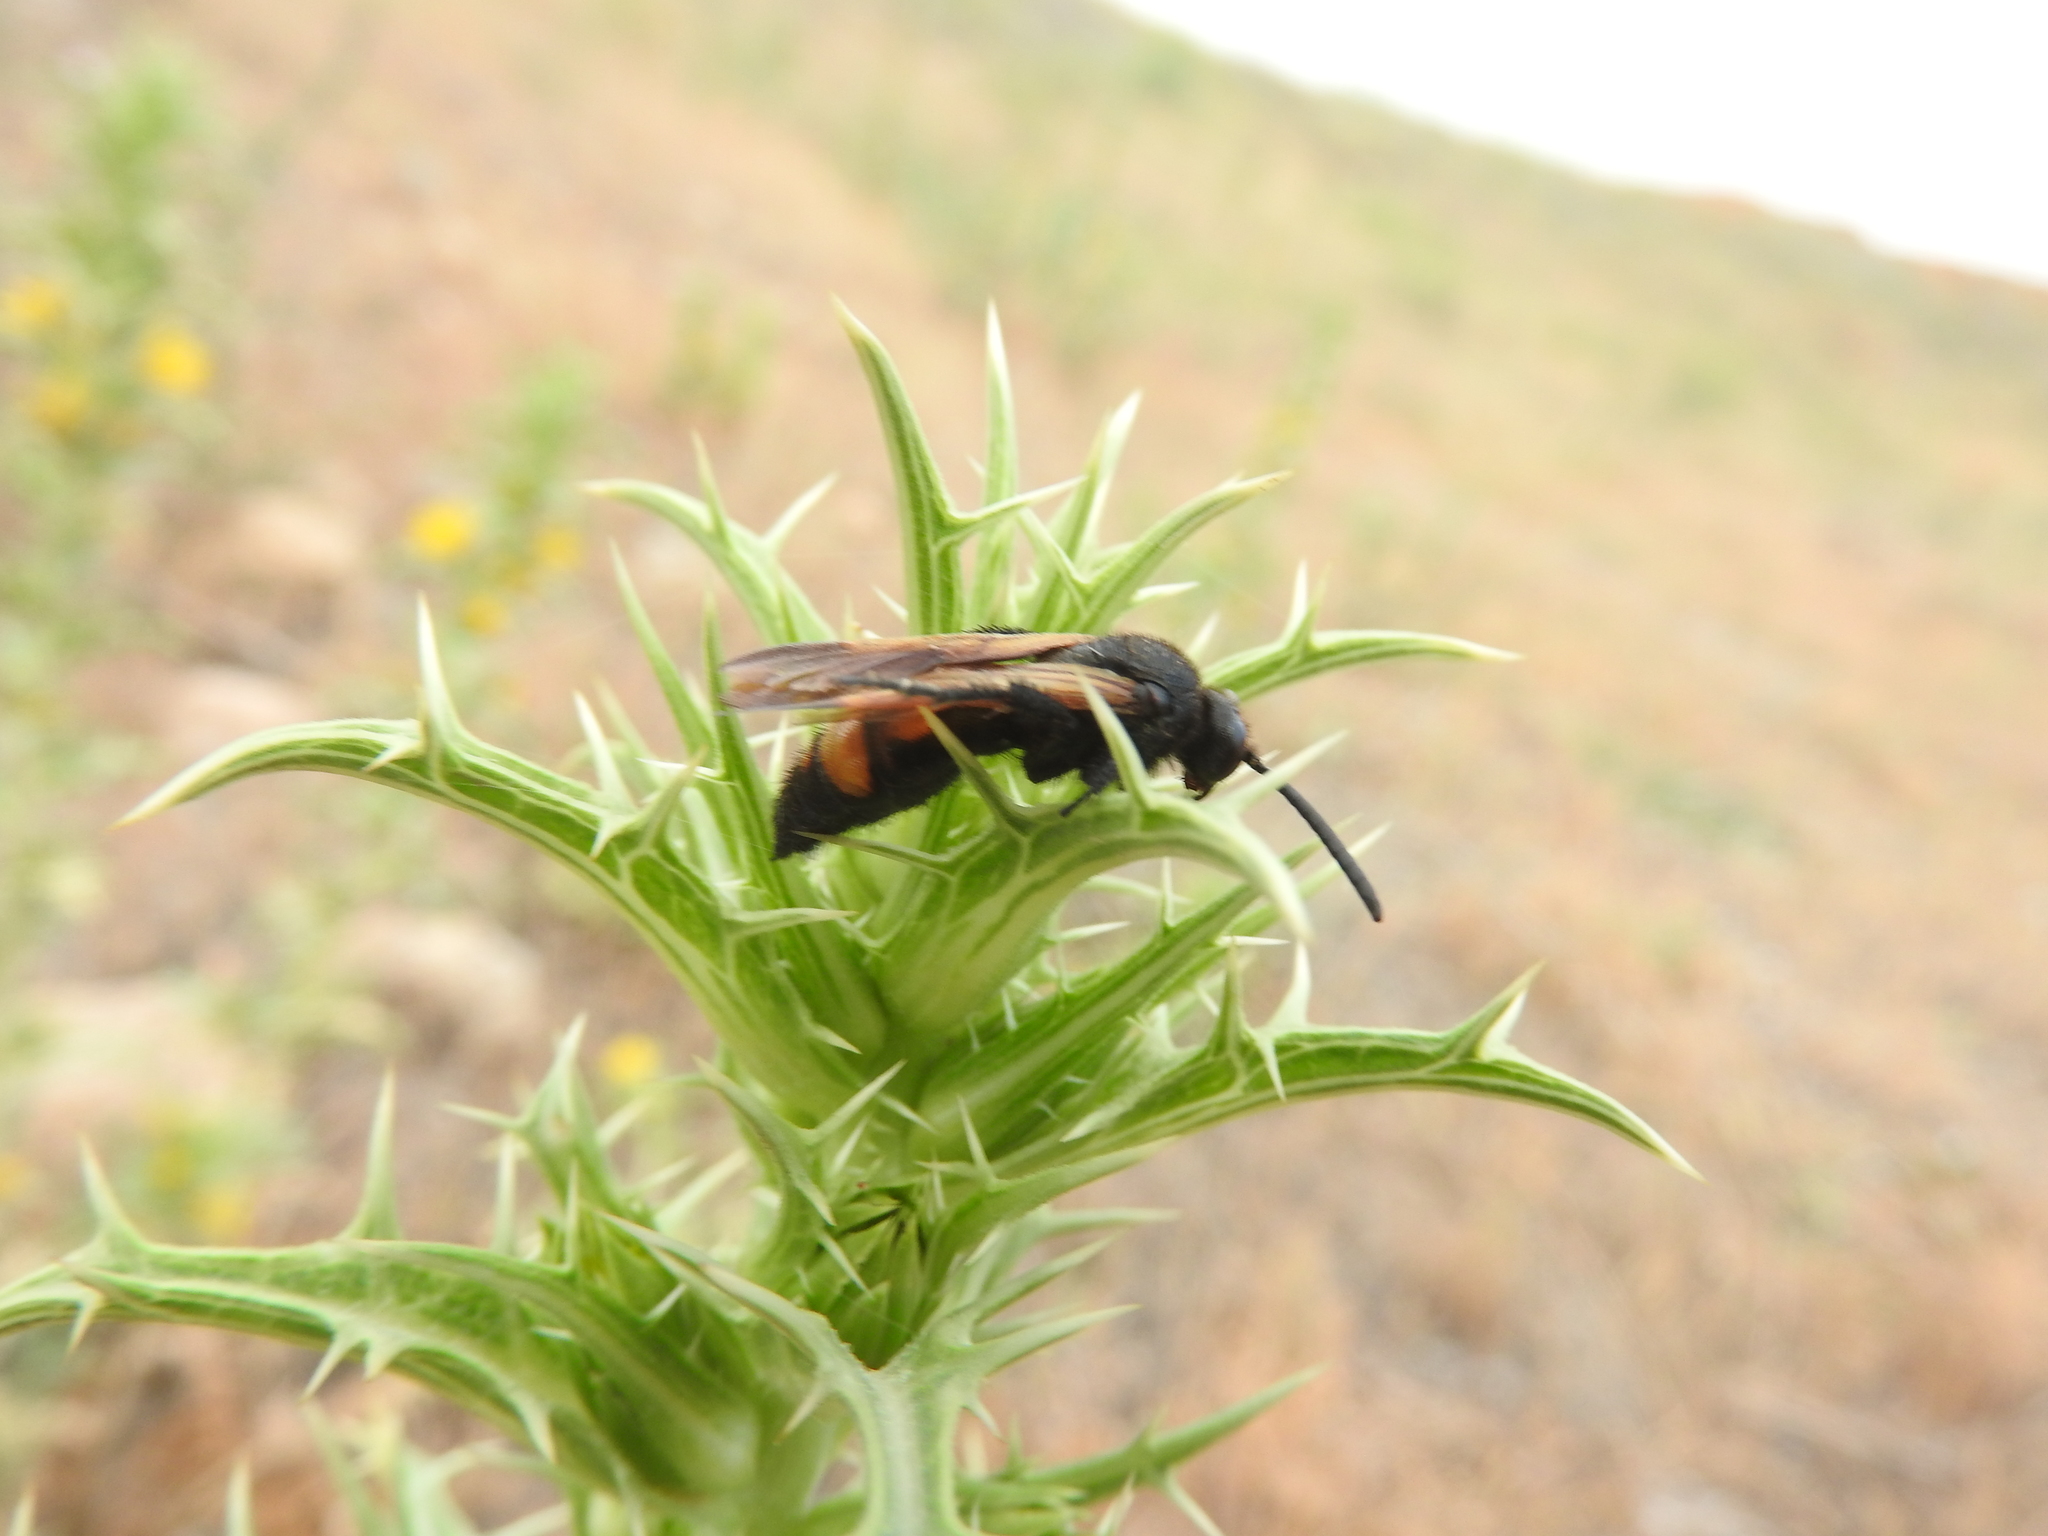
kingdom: Animalia
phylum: Arthropoda
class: Insecta
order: Hymenoptera
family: Scoliidae
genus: Megascolia
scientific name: Megascolia maculata
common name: Mammoth wasp
